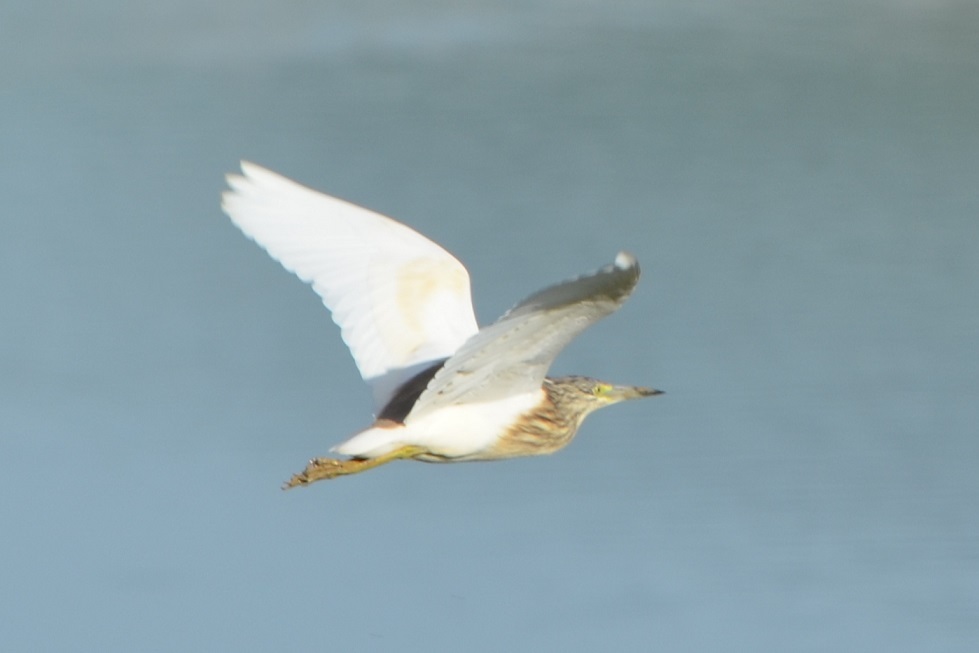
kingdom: Animalia
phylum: Chordata
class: Aves
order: Pelecaniformes
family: Ardeidae
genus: Ardeola
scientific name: Ardeola ralloides
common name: Squacco heron
